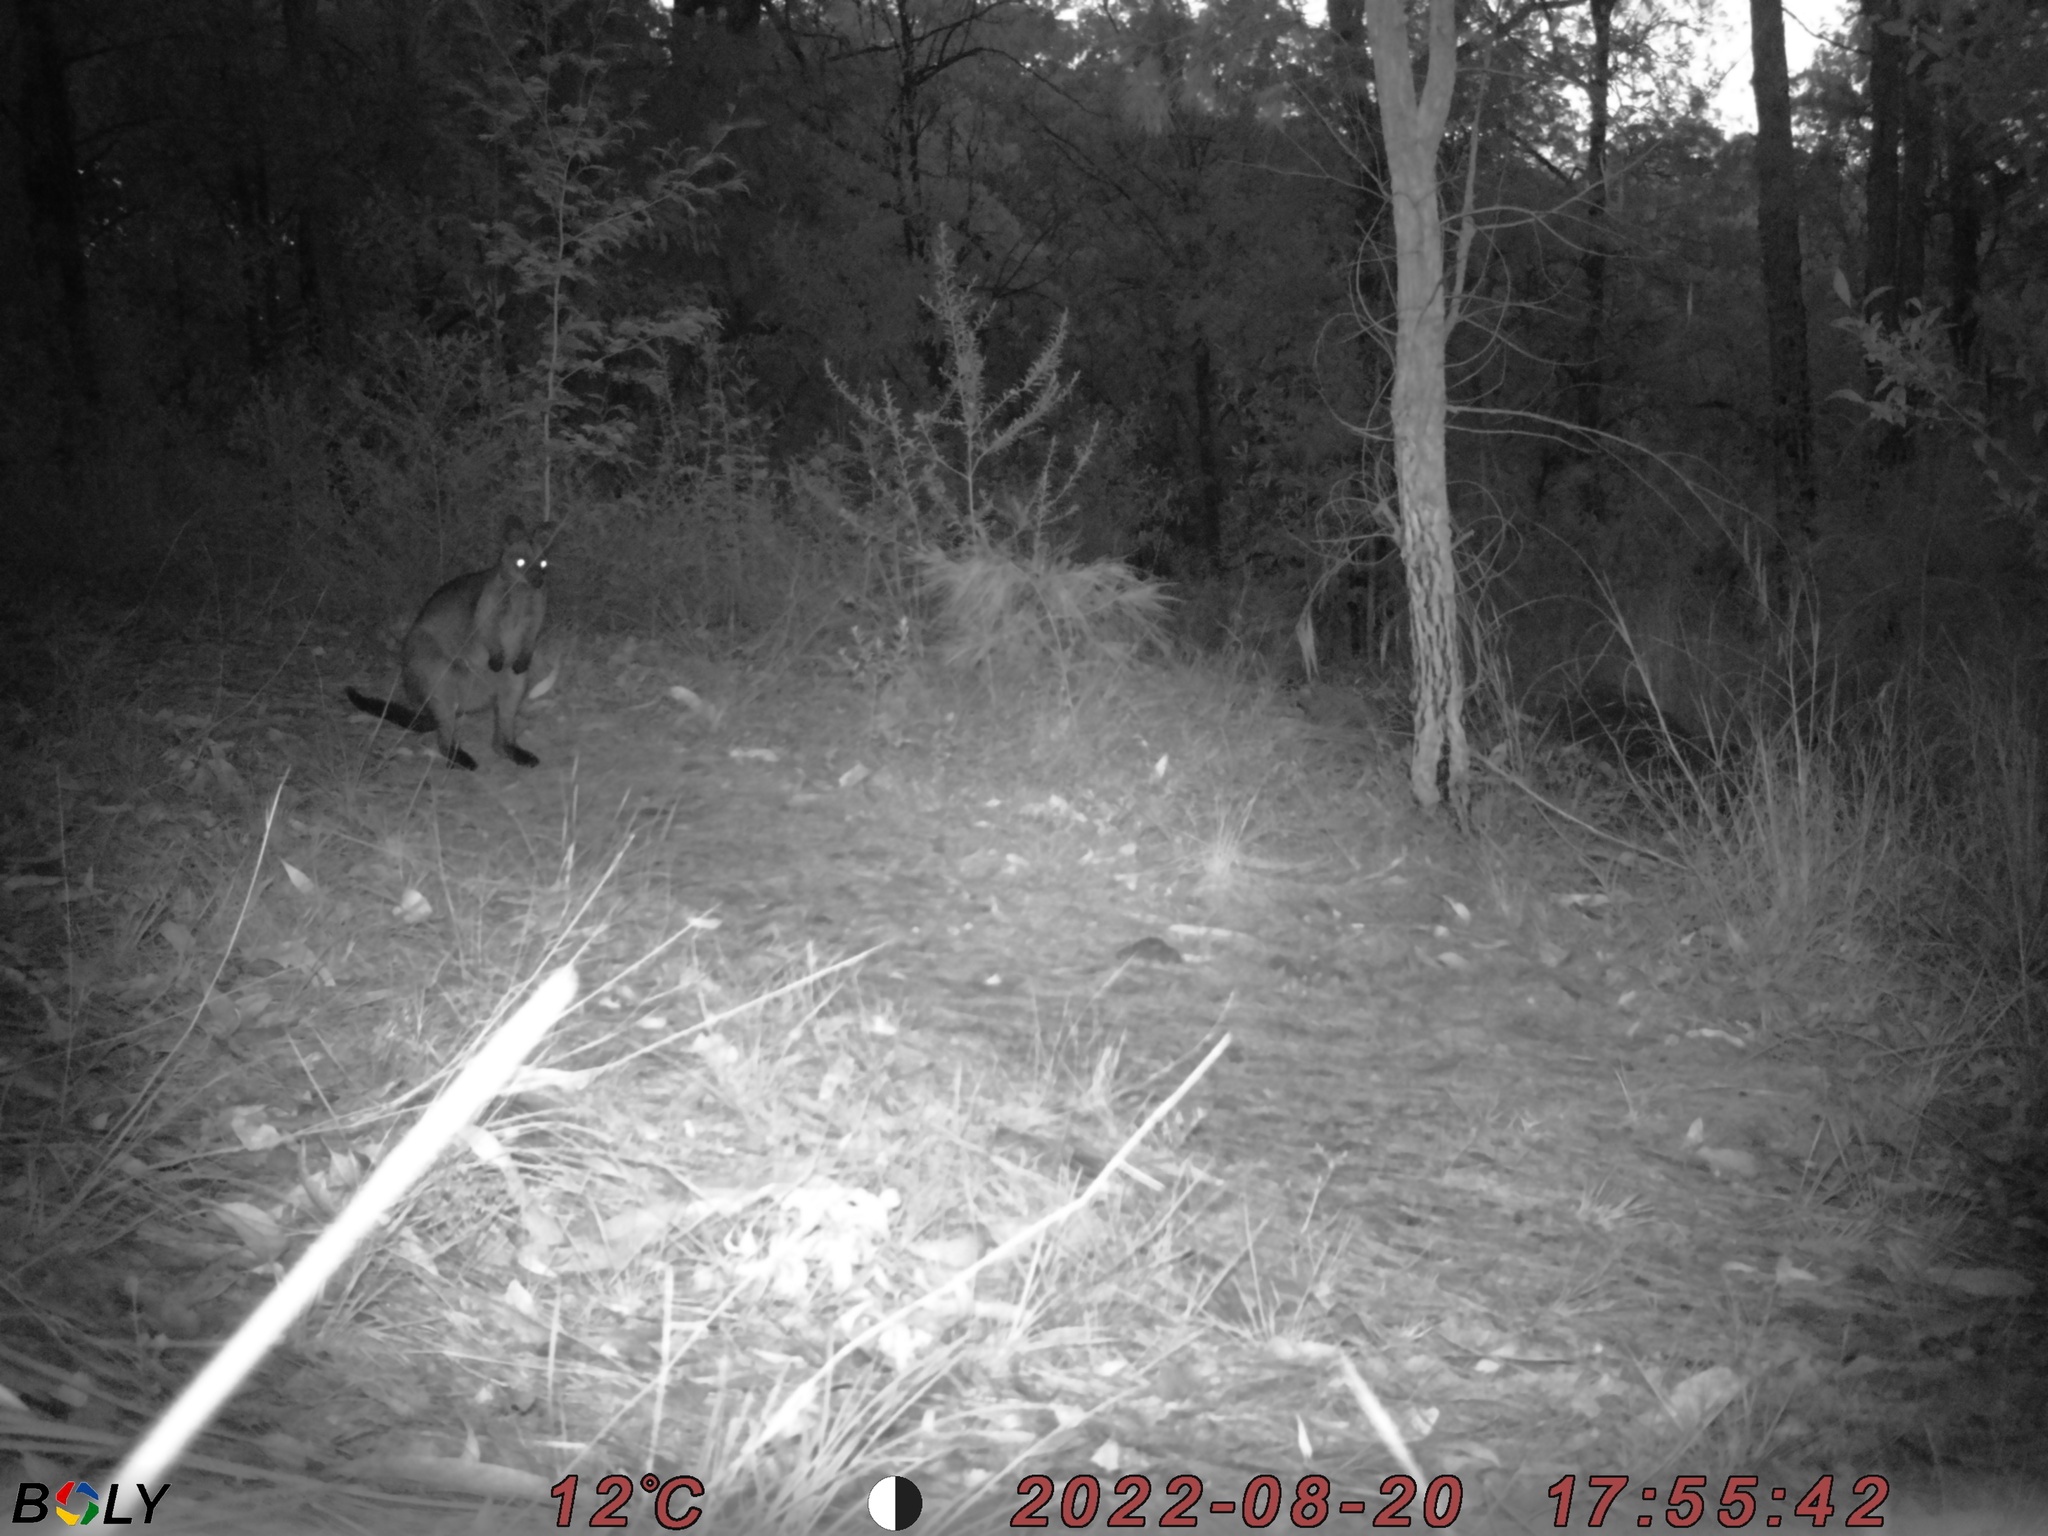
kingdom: Animalia
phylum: Chordata
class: Mammalia
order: Diprotodontia
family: Macropodidae
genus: Wallabia
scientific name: Wallabia bicolor
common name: Swamp wallaby
